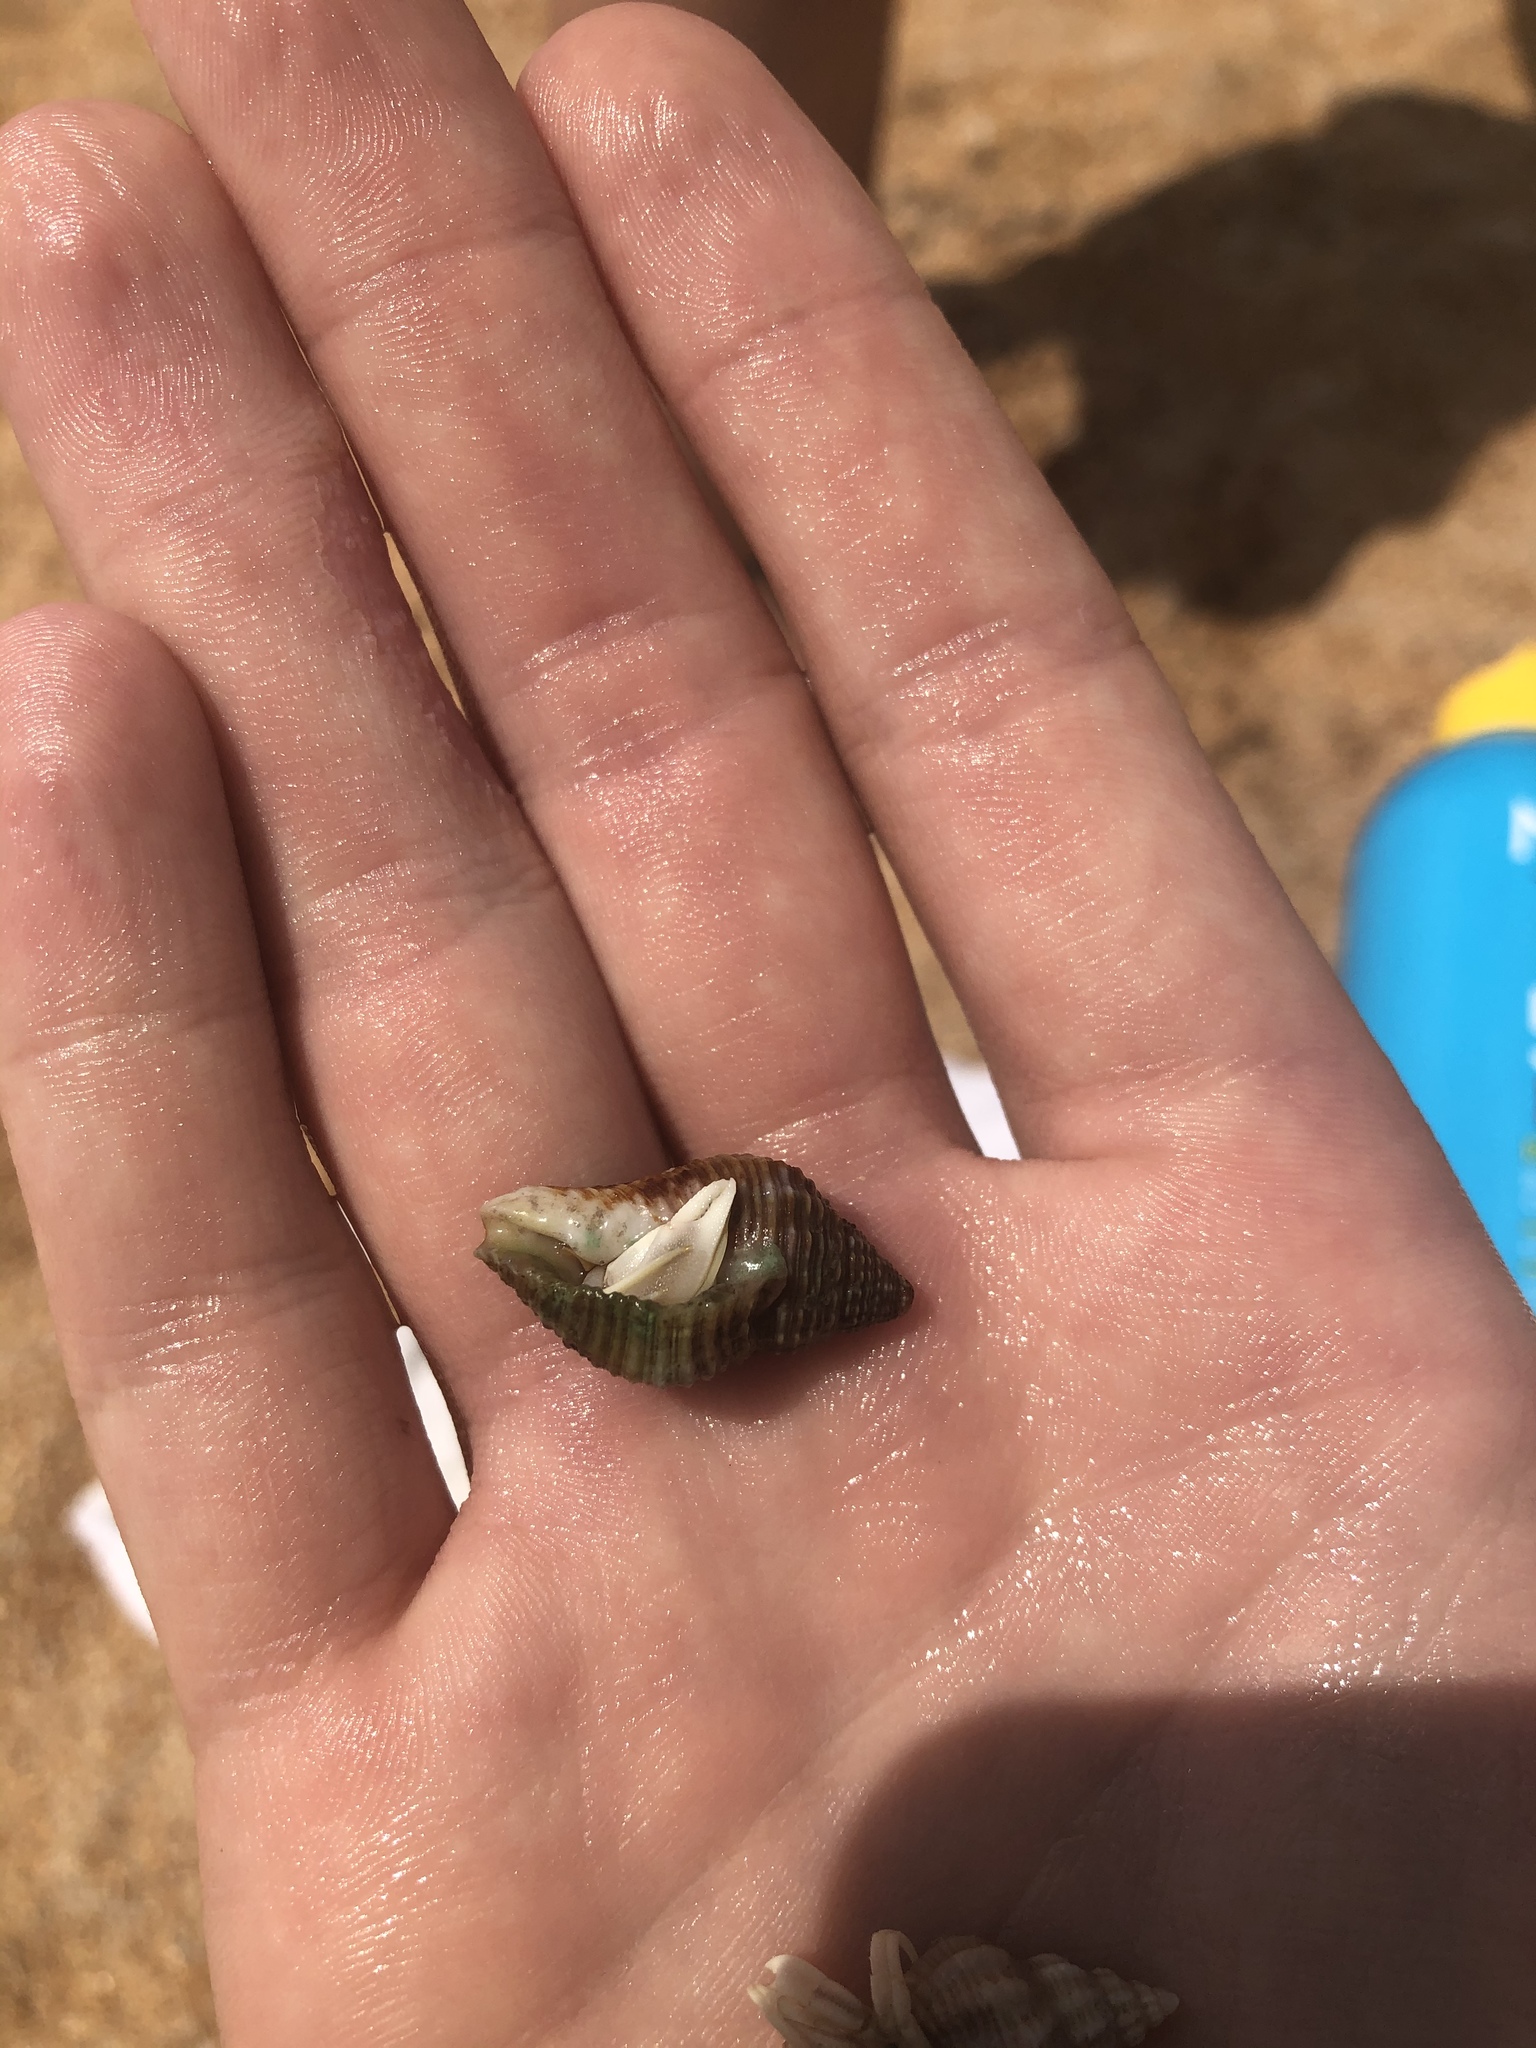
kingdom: Animalia
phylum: Arthropoda
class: Malacostraca
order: Decapoda
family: Paguridae
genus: Pagurus
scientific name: Pagurus longicarpus
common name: Long-armed hermit crab
